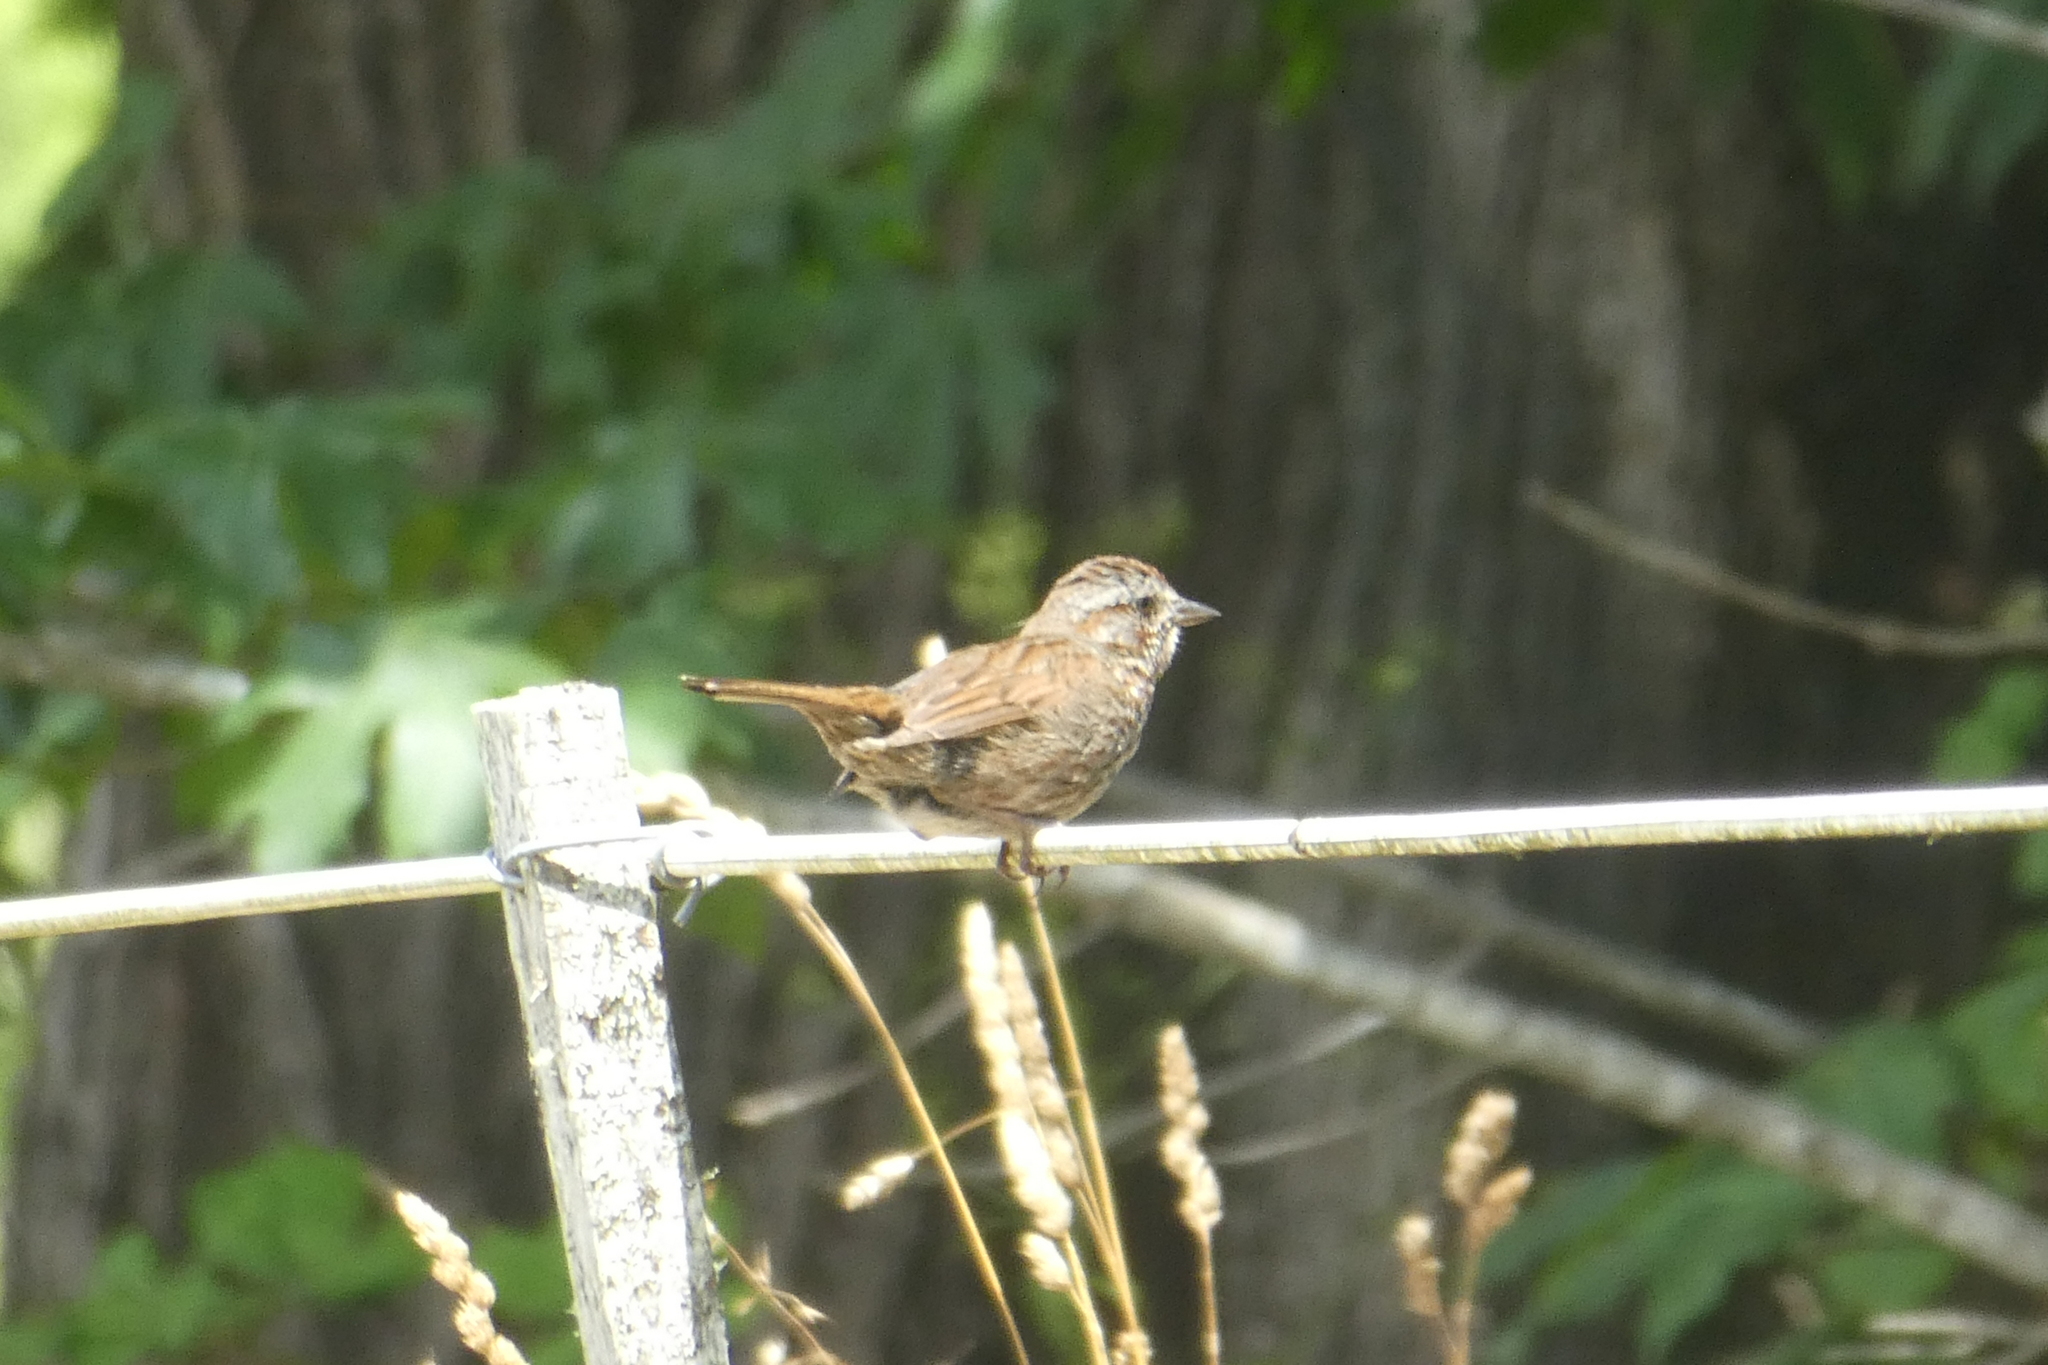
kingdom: Animalia
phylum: Chordata
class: Aves
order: Passeriformes
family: Passerellidae
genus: Melospiza
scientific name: Melospiza melodia
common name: Song sparrow
